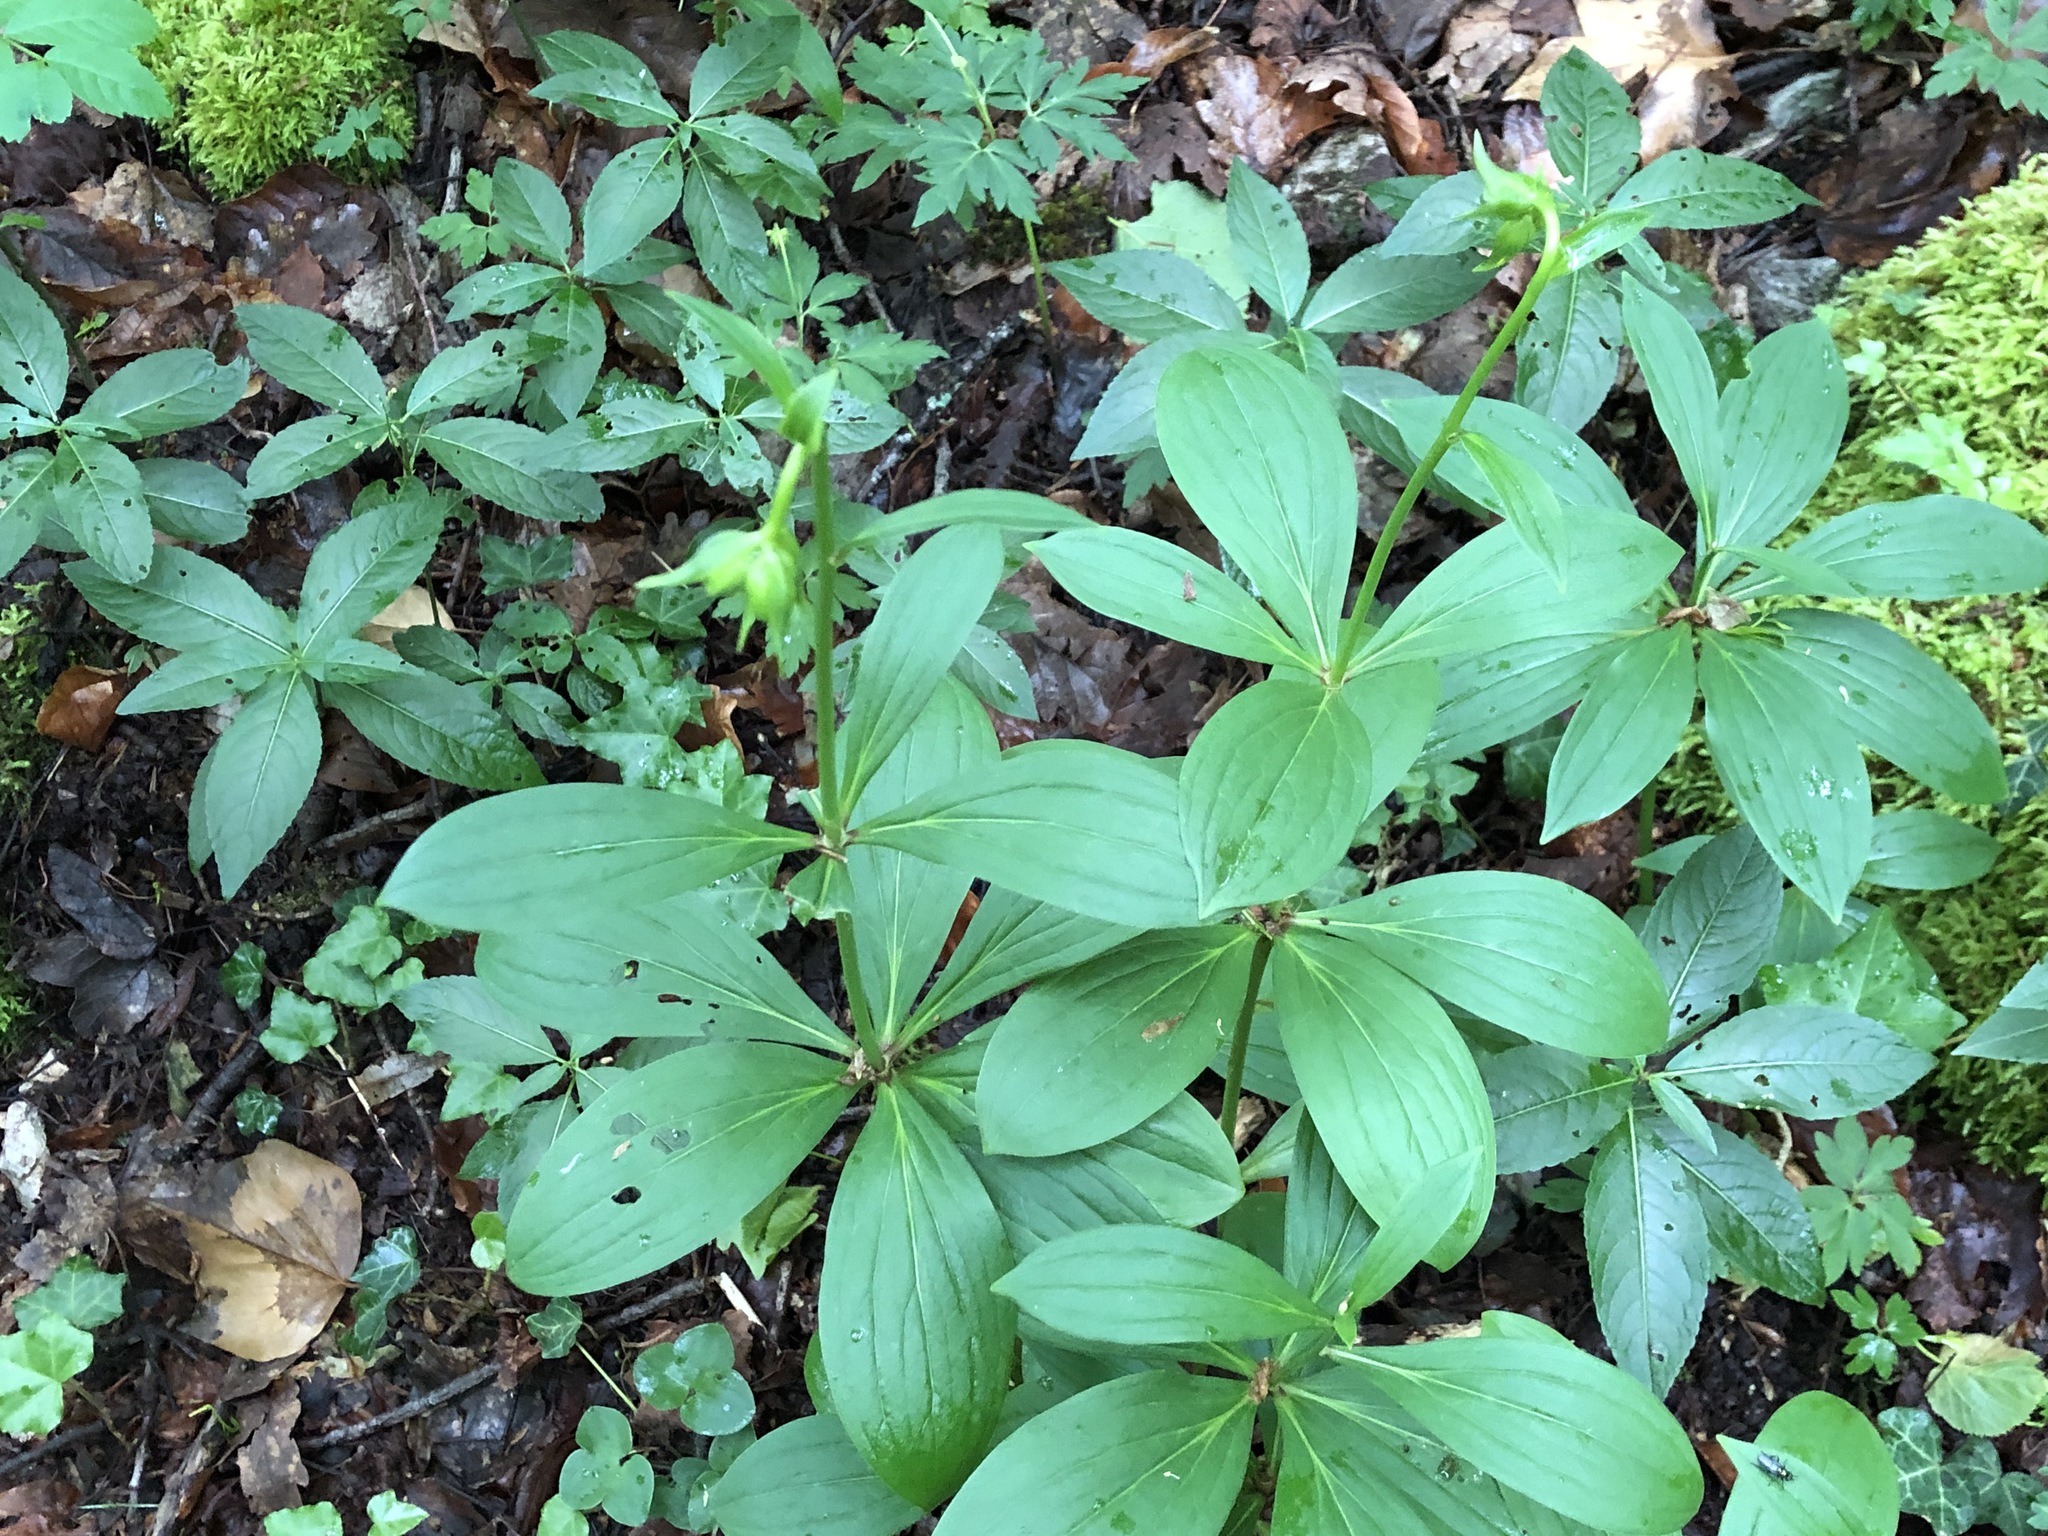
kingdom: Plantae
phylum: Tracheophyta
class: Liliopsida
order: Liliales
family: Liliaceae
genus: Lilium
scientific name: Lilium martagon
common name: Martagon lily
